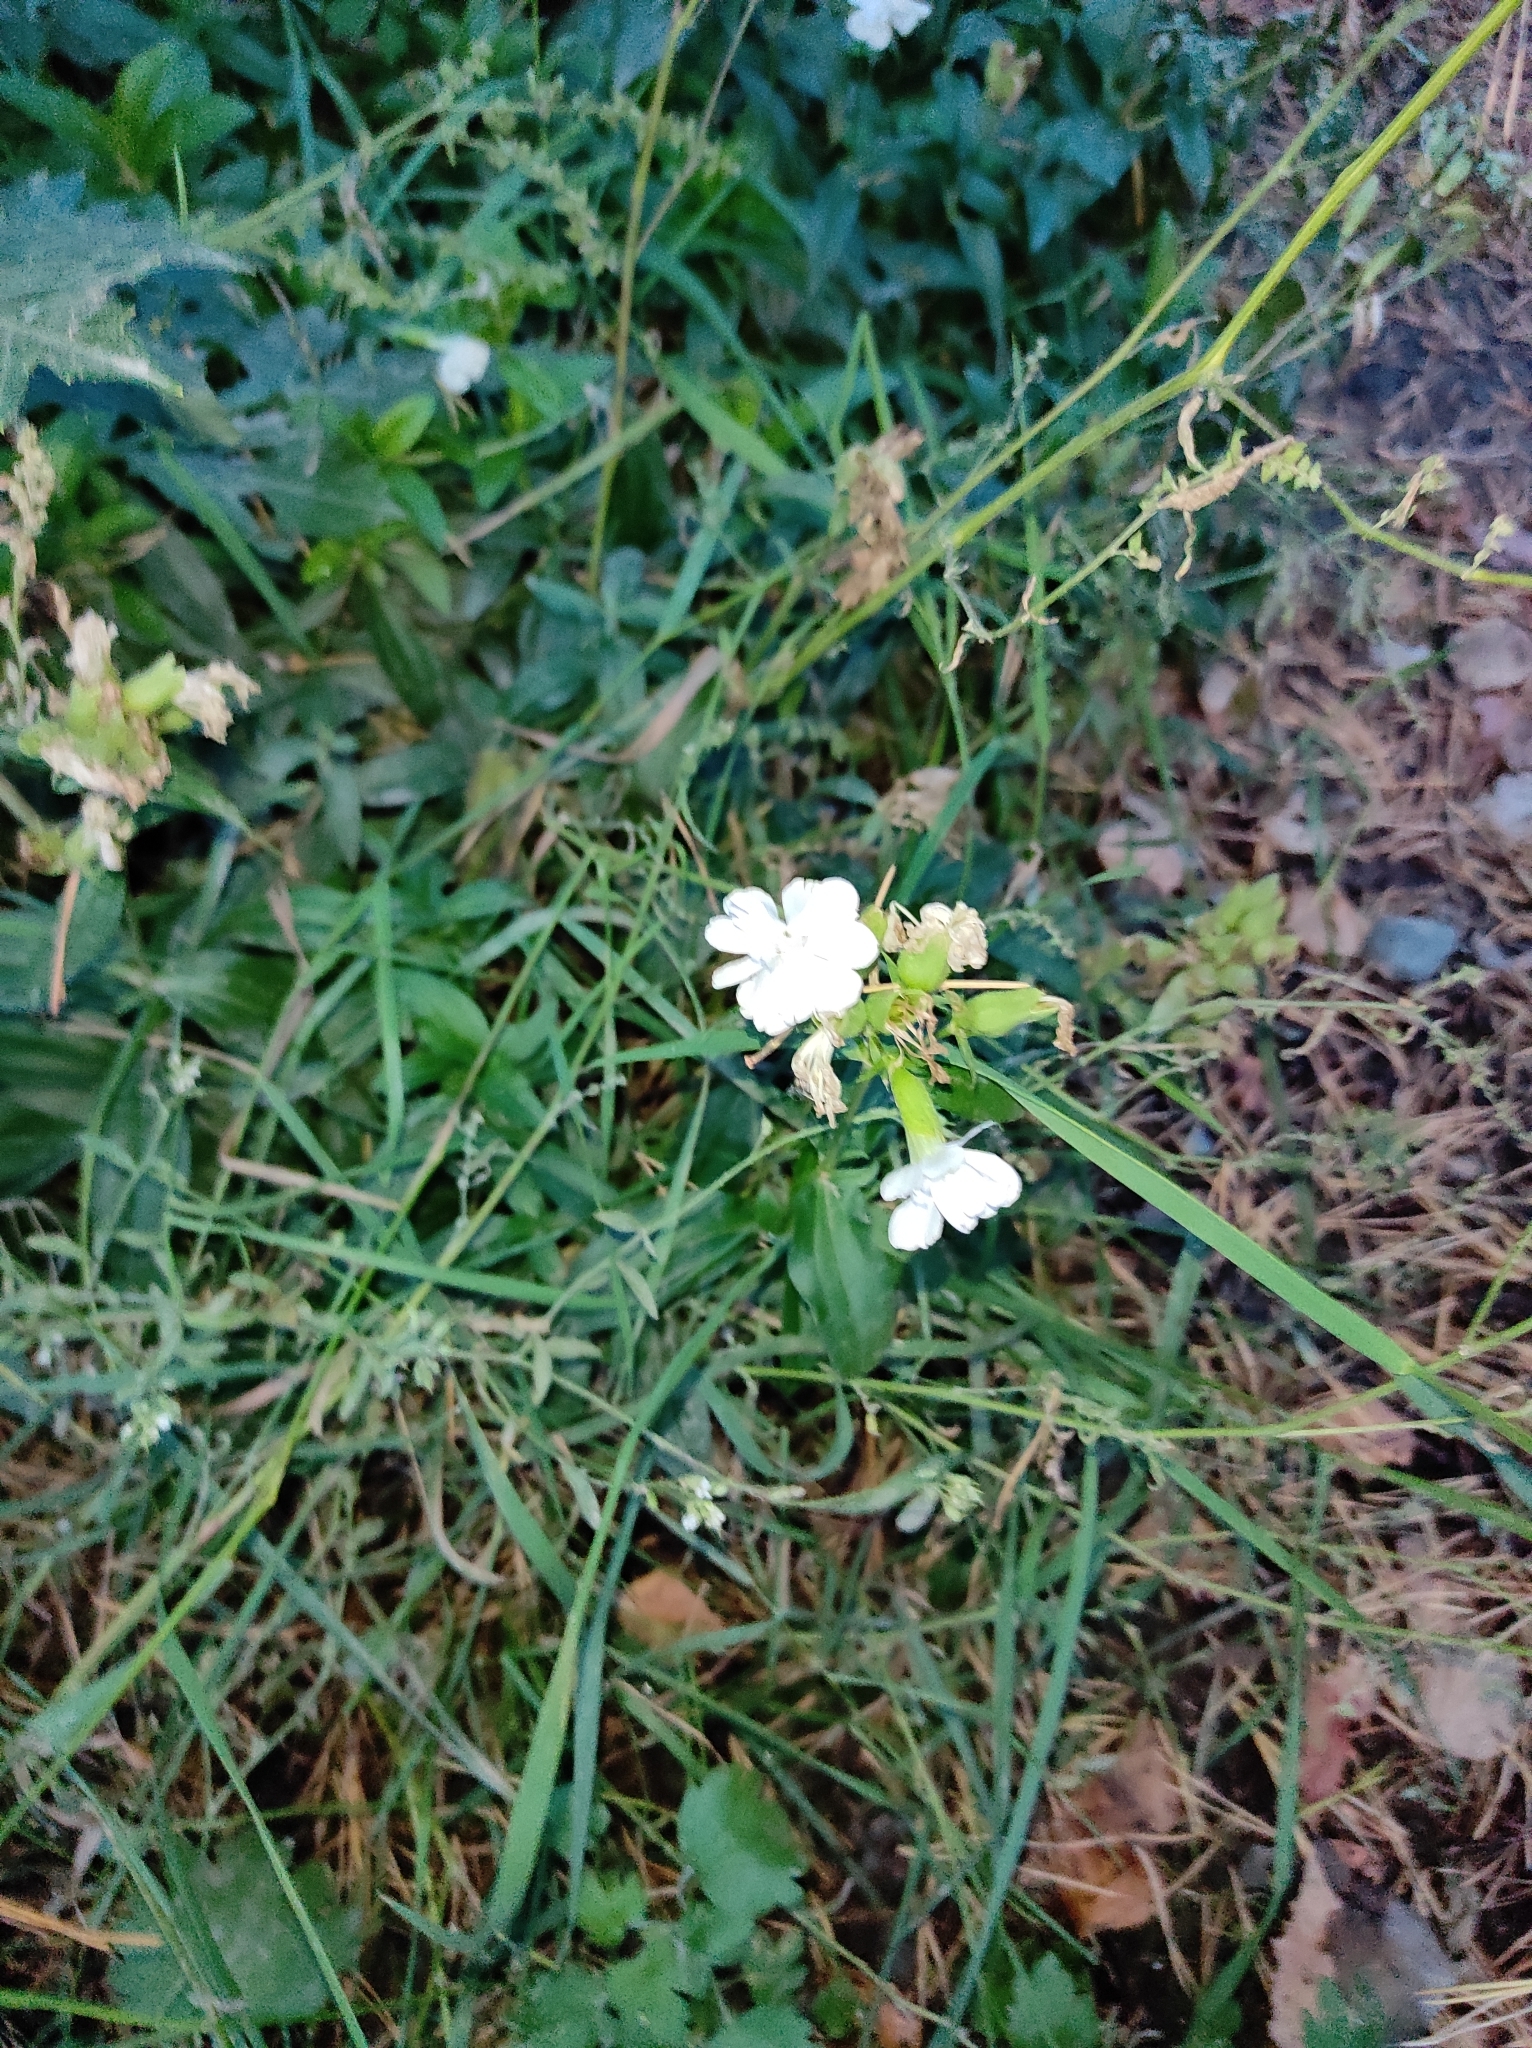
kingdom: Plantae
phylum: Tracheophyta
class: Magnoliopsida
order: Caryophyllales
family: Caryophyllaceae
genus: Saponaria
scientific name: Saponaria officinalis
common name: Soapwort
